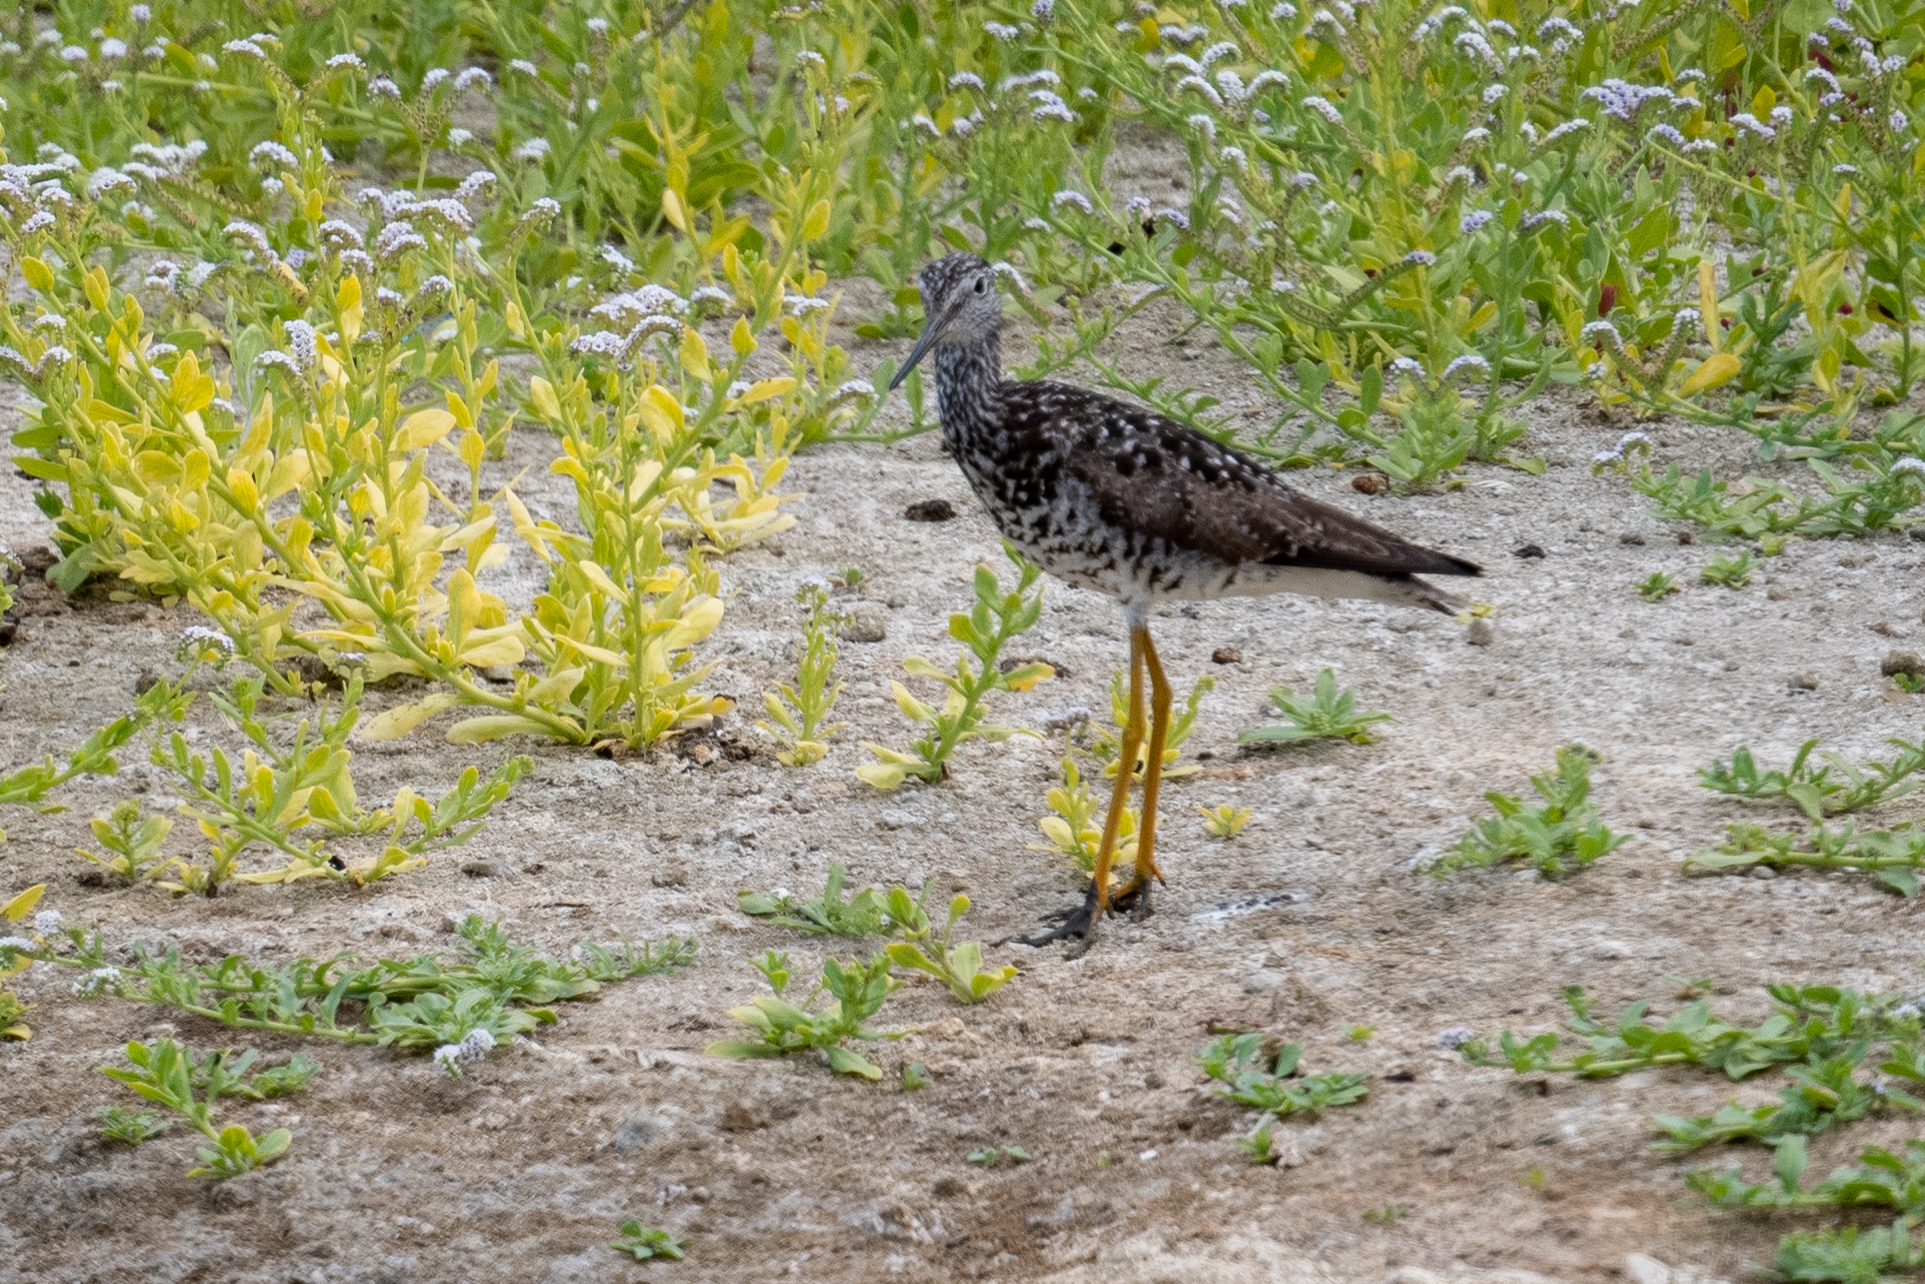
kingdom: Animalia
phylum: Chordata
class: Aves
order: Charadriiformes
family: Scolopacidae
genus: Tringa
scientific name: Tringa melanoleuca
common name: Greater yellowlegs
